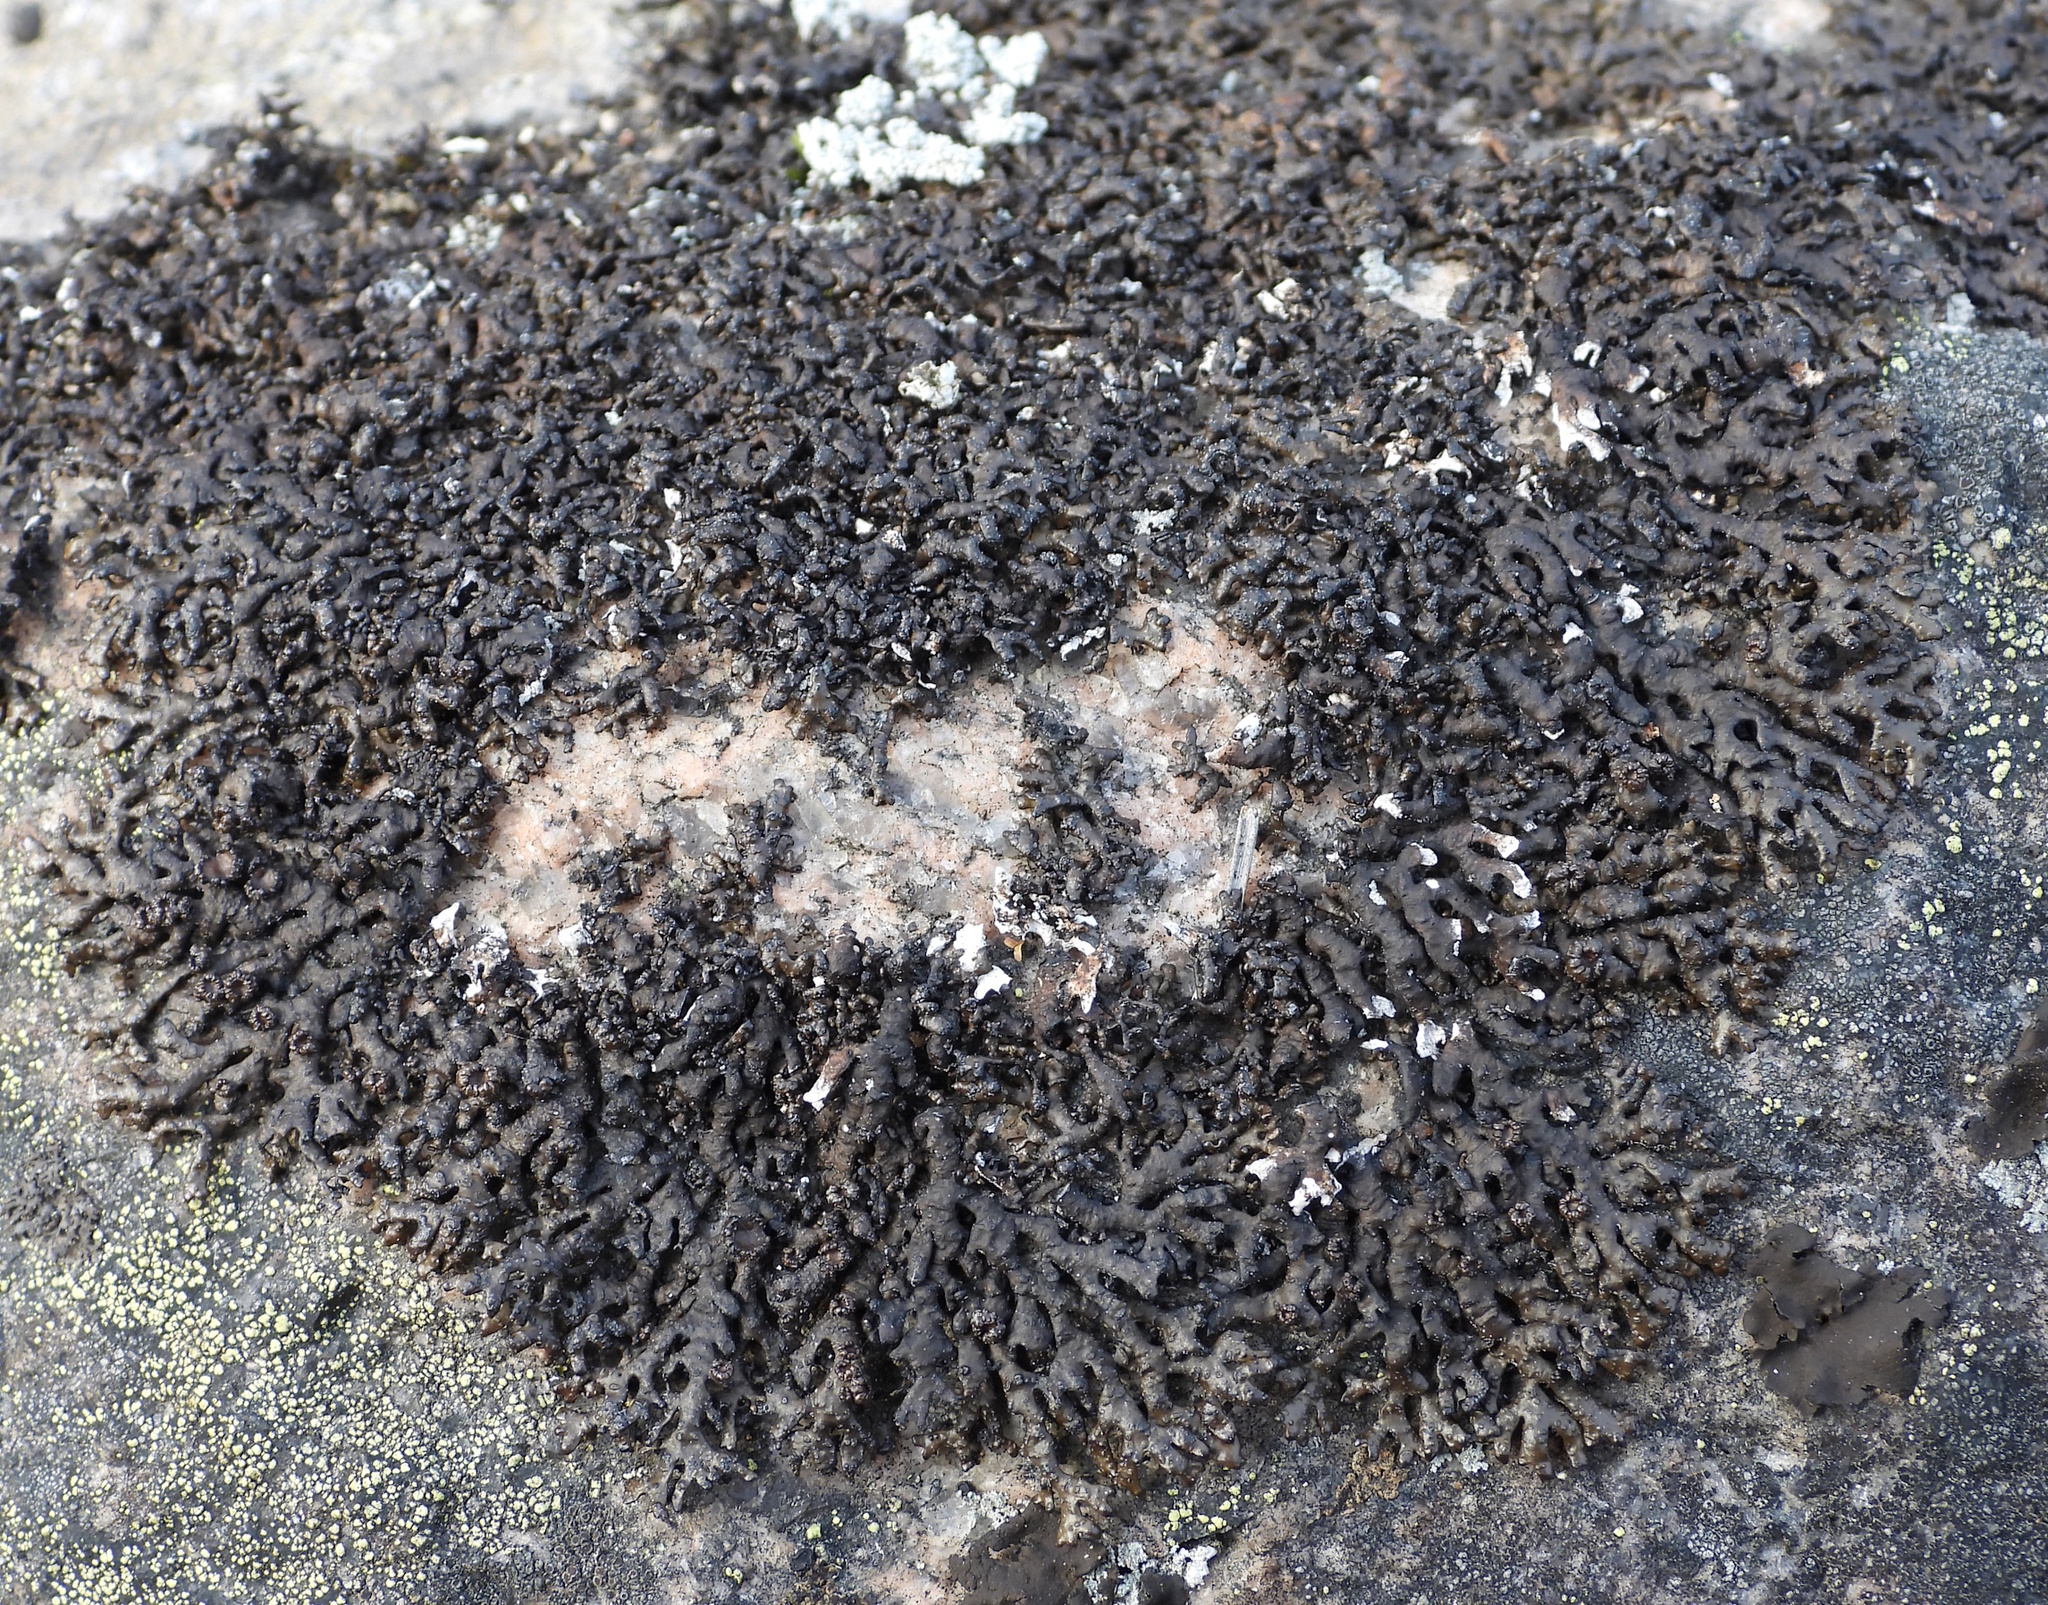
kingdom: Fungi
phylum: Ascomycota
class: Lecanoromycetes
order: Lecanorales
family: Parmeliaceae
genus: Melanelia
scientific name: Melanelia stygia
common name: Alpine camouflage lichen
